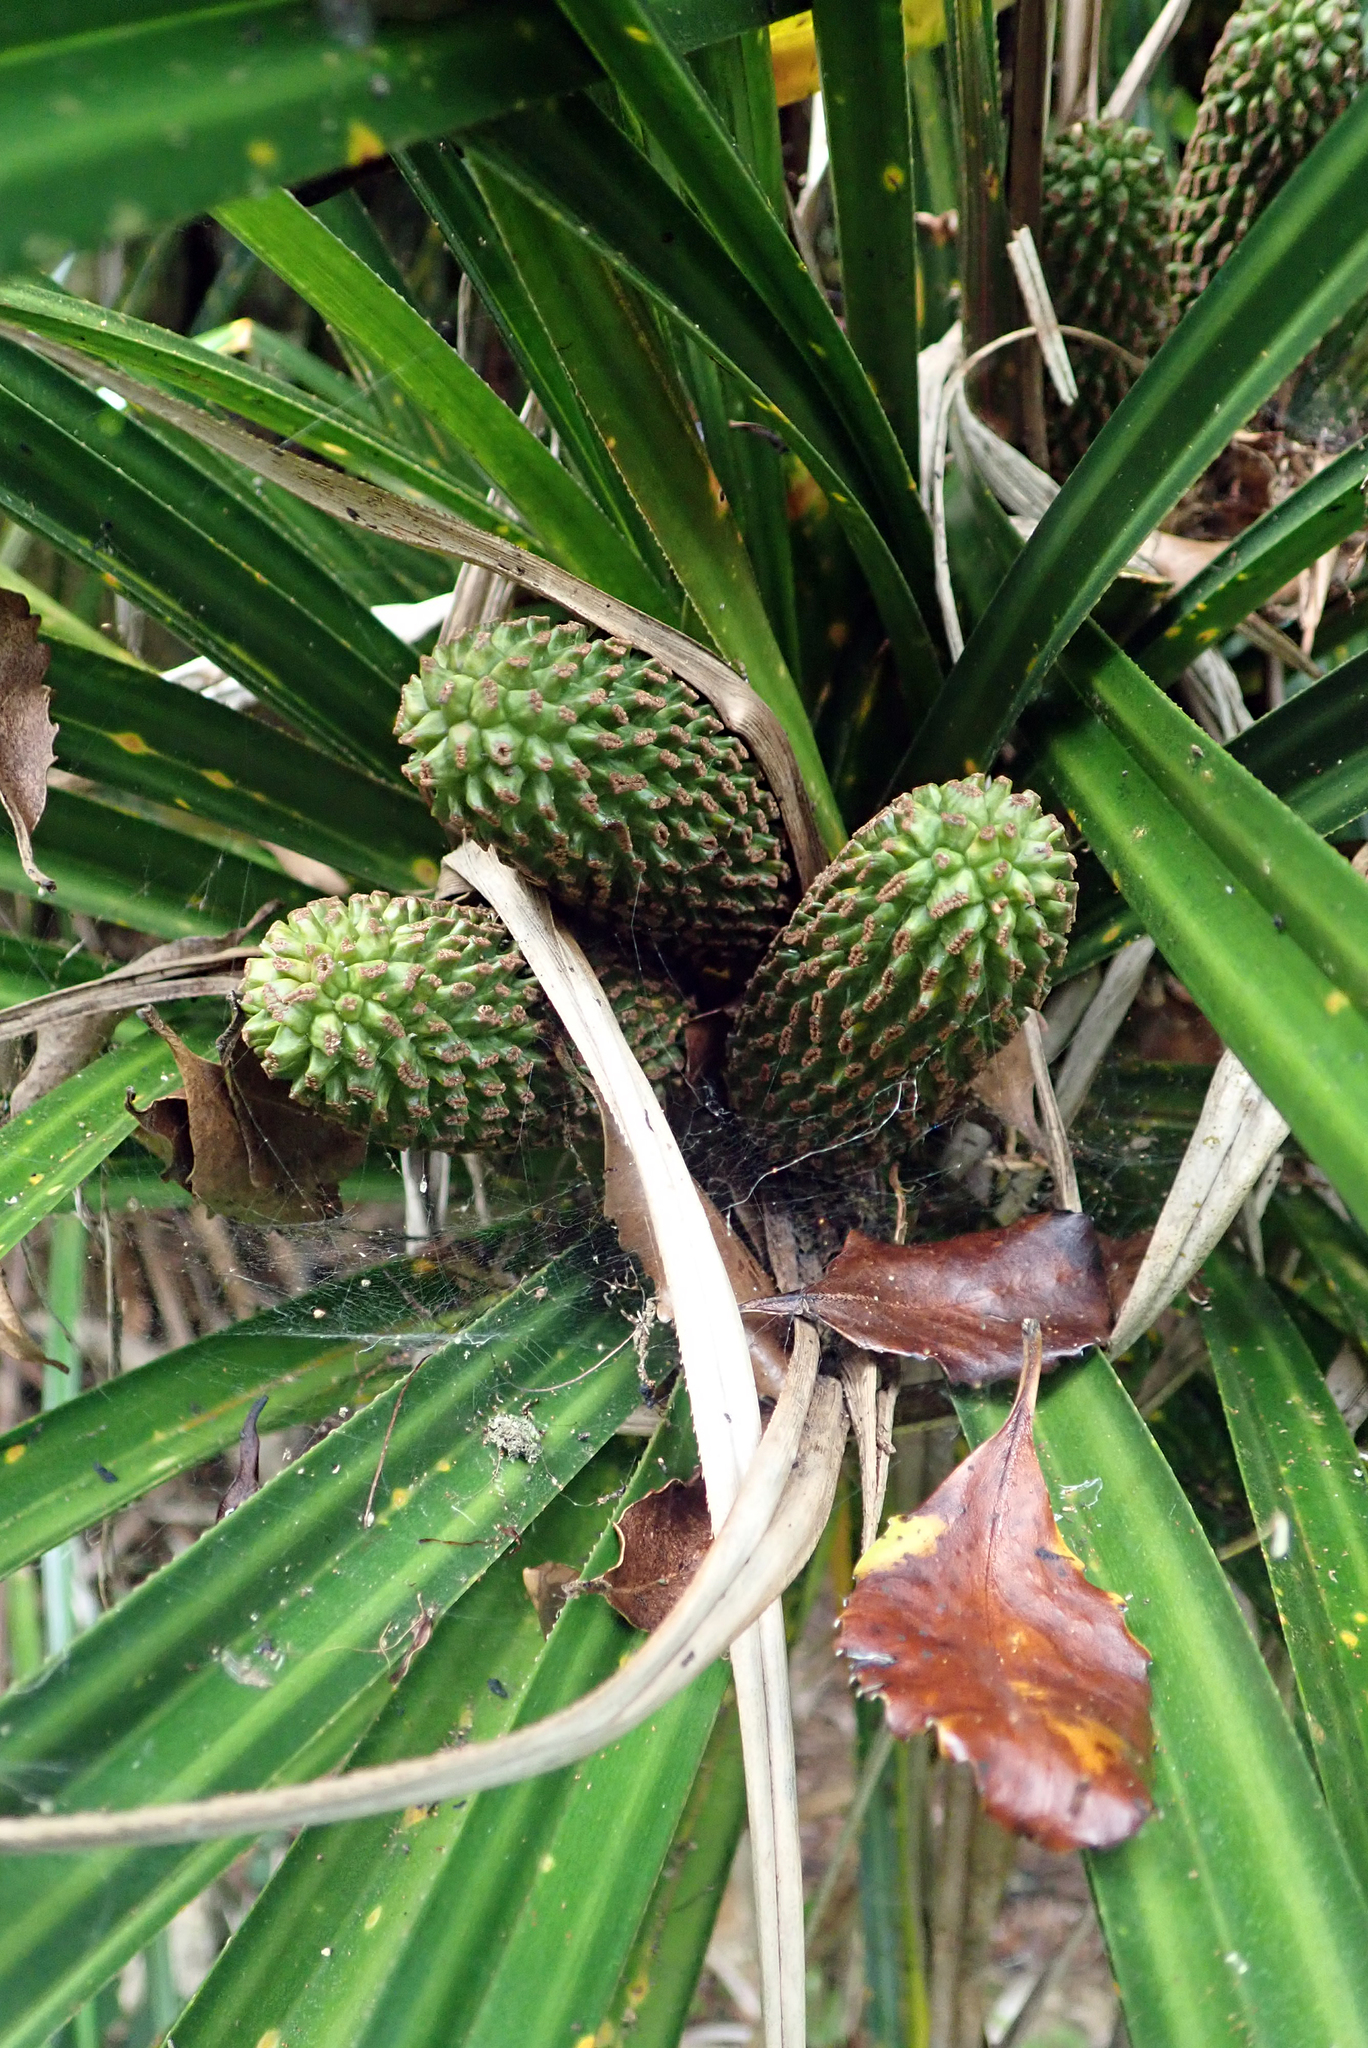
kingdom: Plantae
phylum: Tracheophyta
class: Liliopsida
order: Pandanales
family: Pandanaceae
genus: Freycinetia
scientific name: Freycinetia banksii
